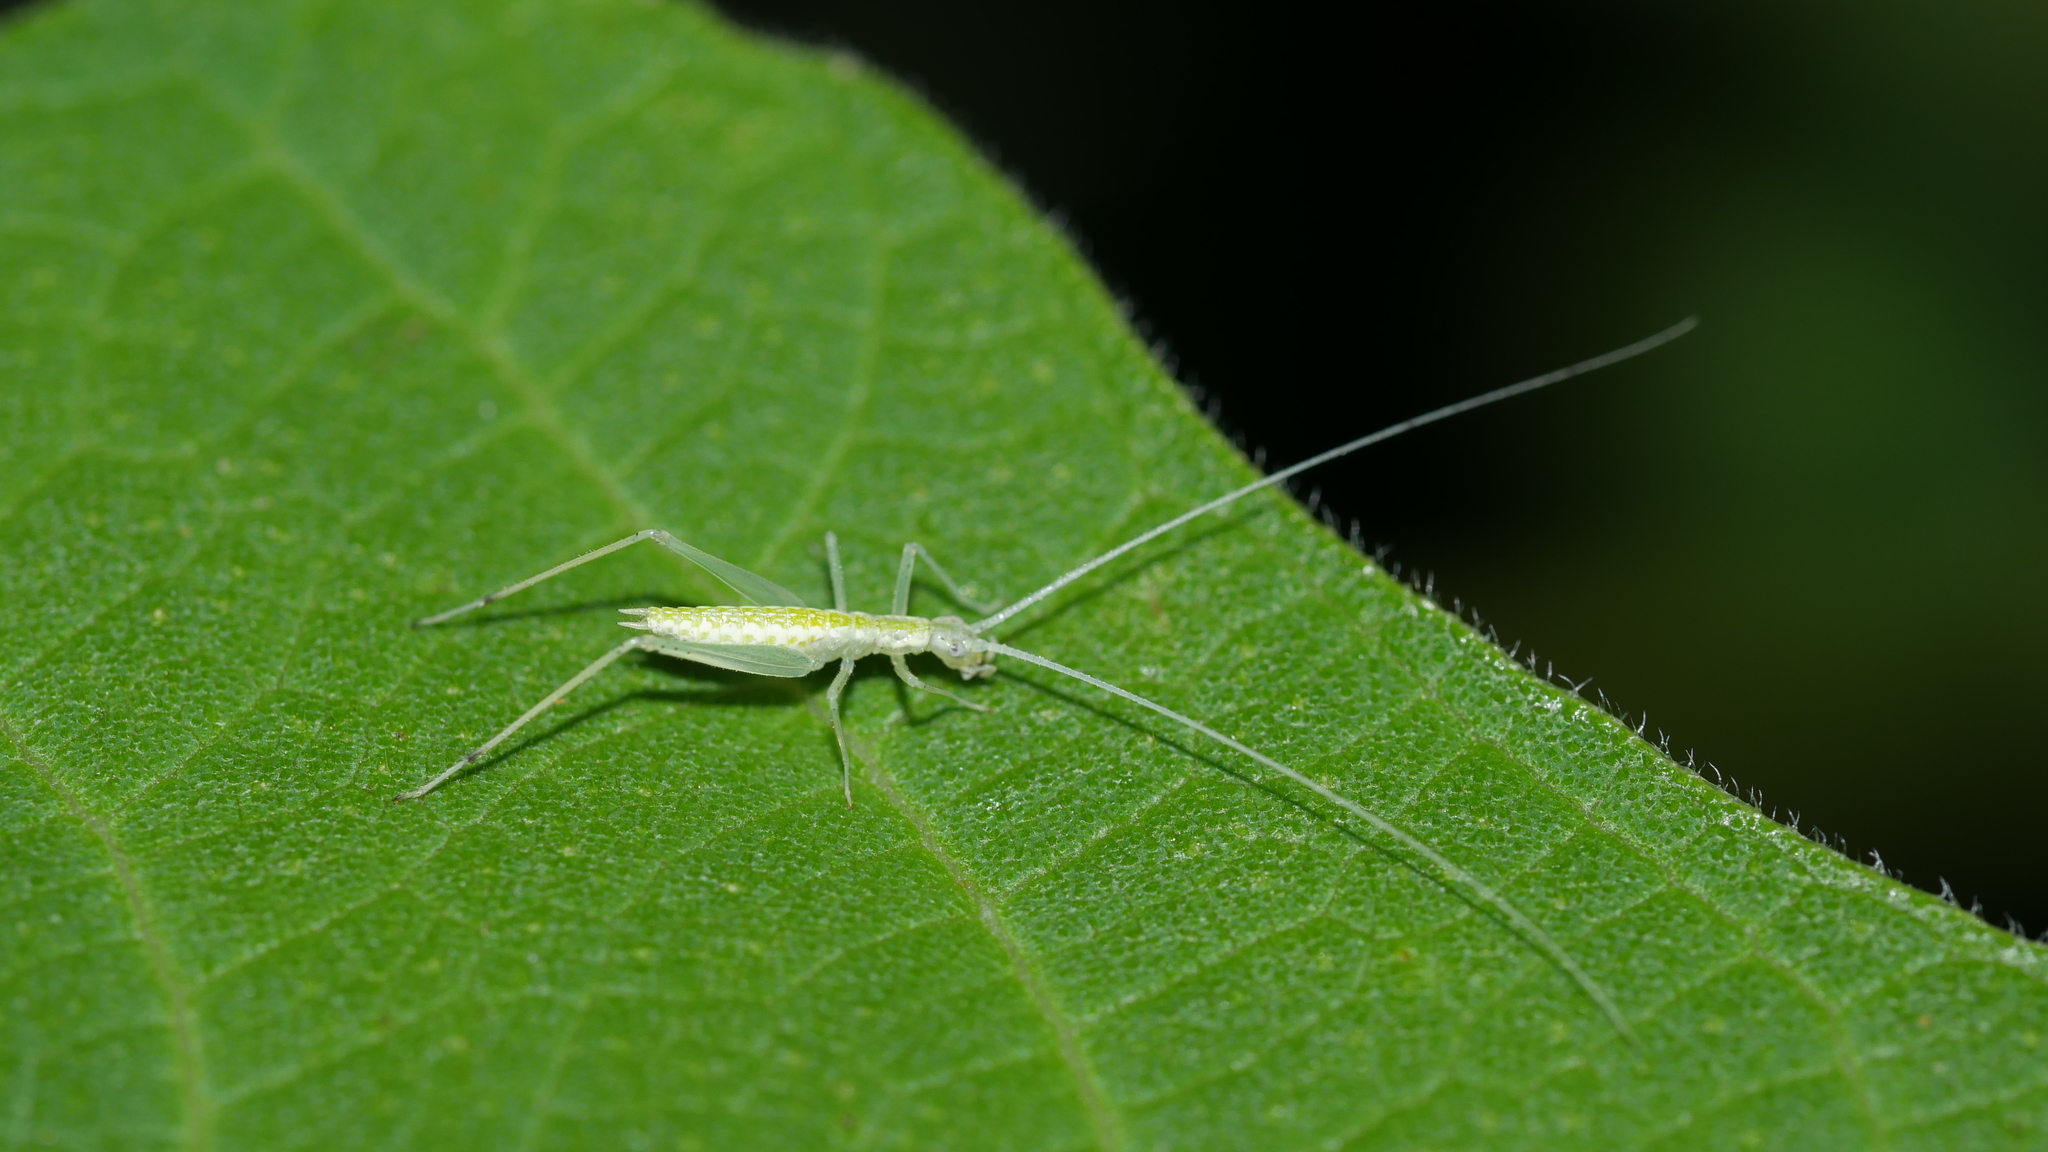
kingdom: Animalia
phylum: Arthropoda
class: Insecta
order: Orthoptera
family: Gryllidae
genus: Oecanthus
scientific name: Oecanthus
